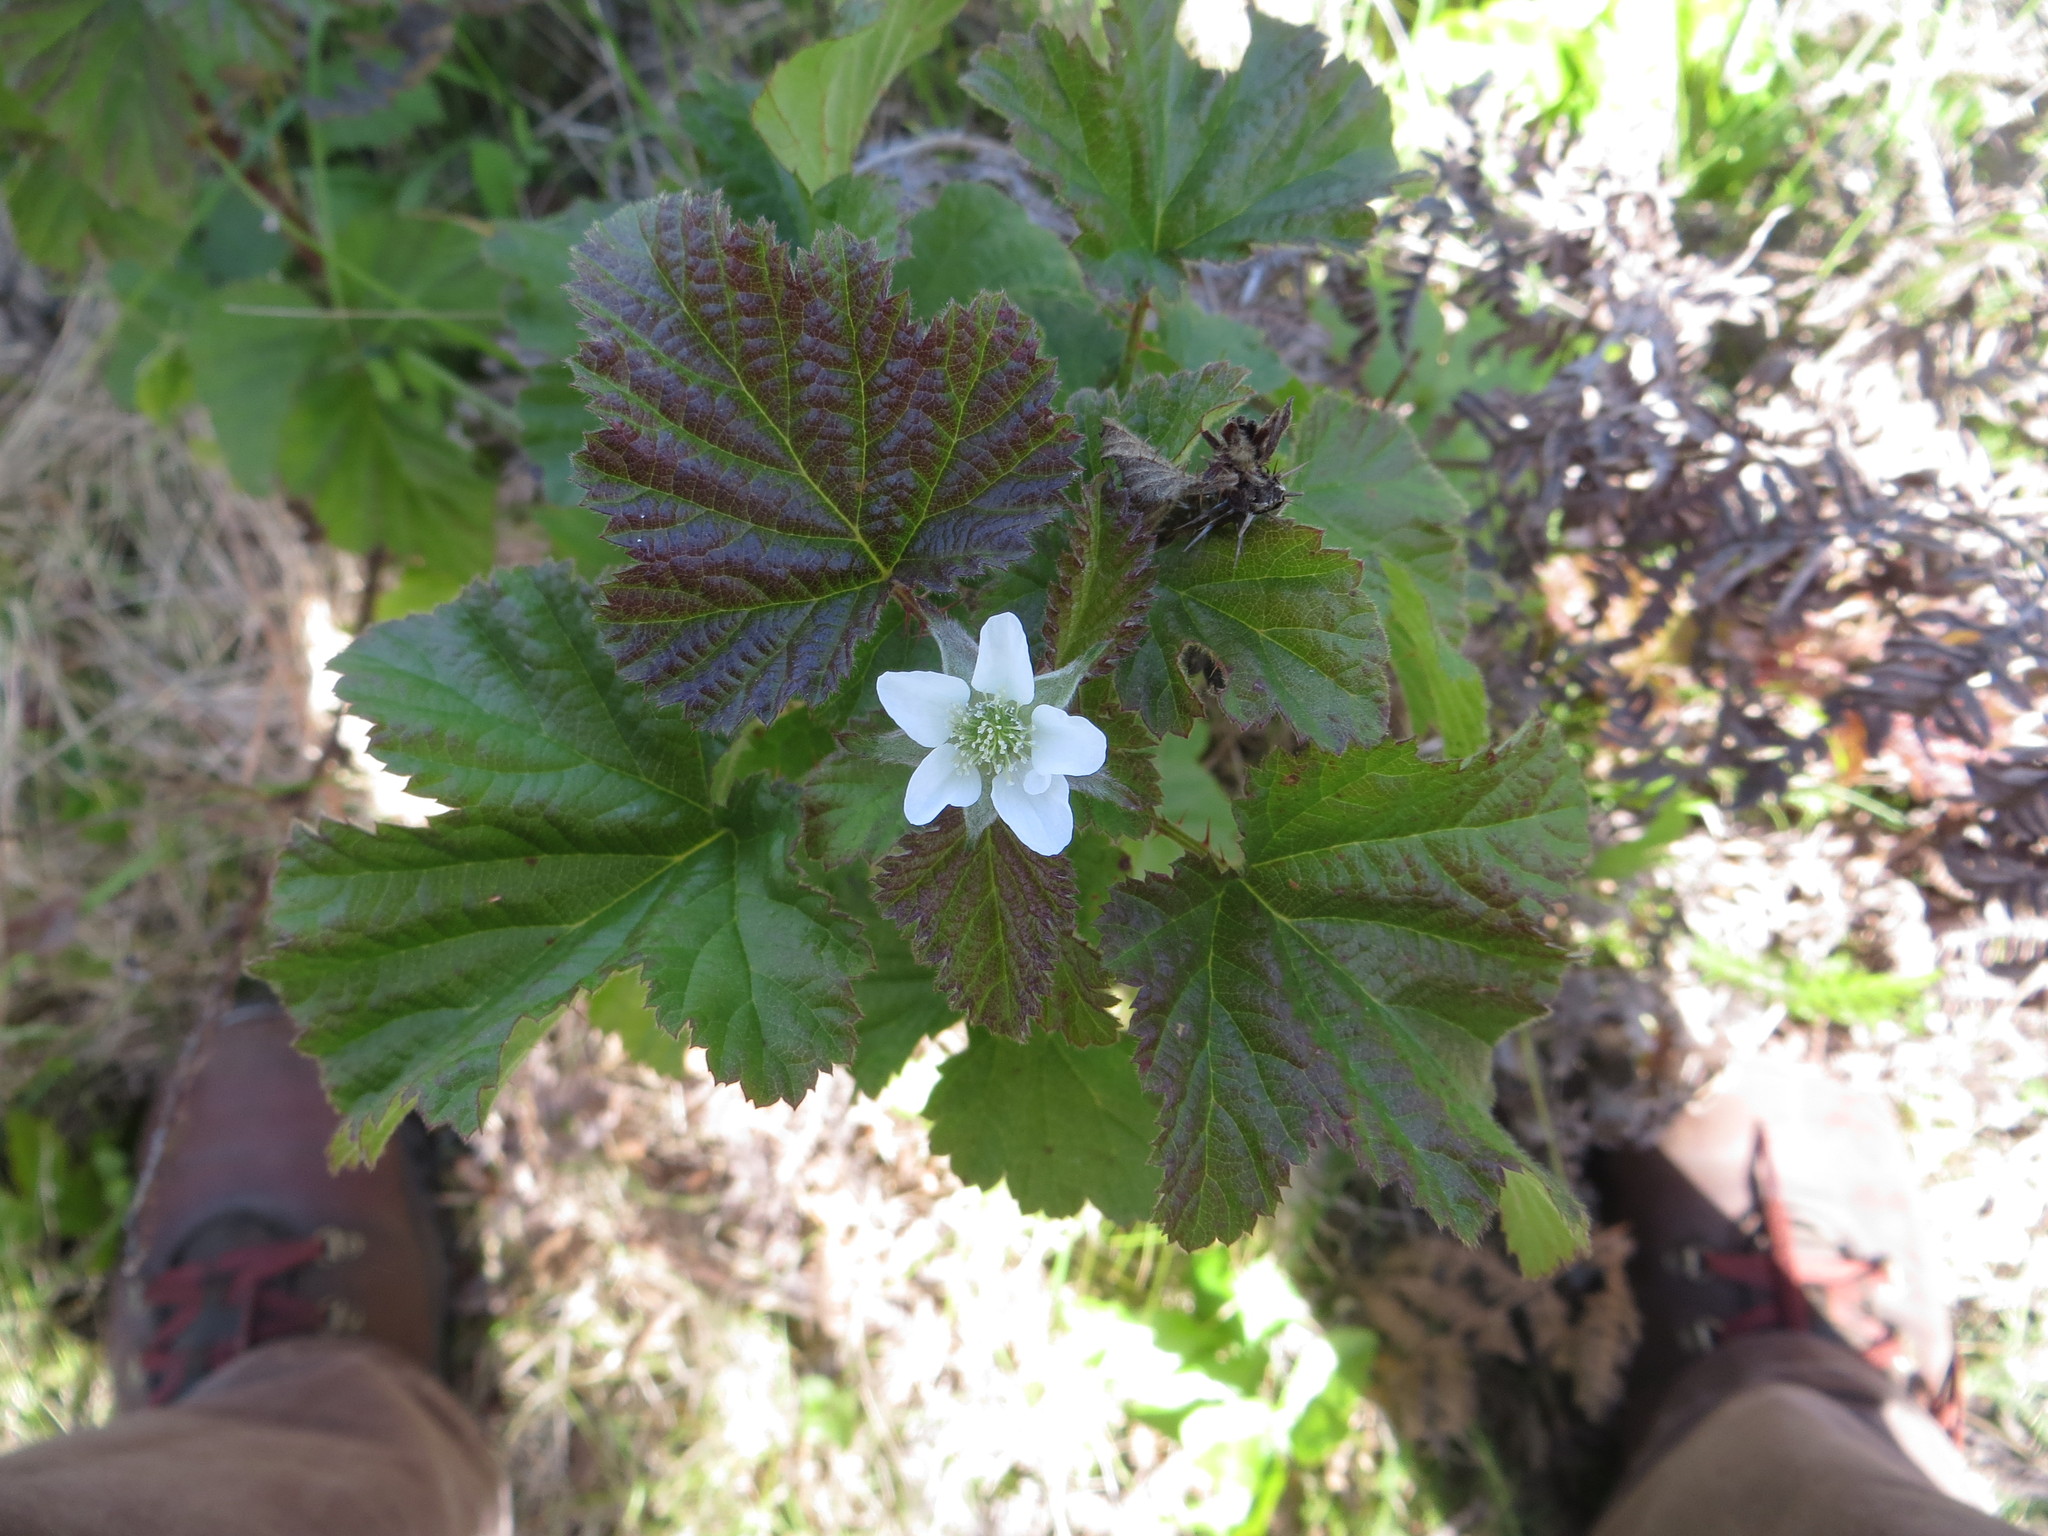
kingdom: Plantae
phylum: Tracheophyta
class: Magnoliopsida
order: Rosales
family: Rosaceae
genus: Rubus
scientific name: Rubus ursinus
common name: Pacific blackberry
